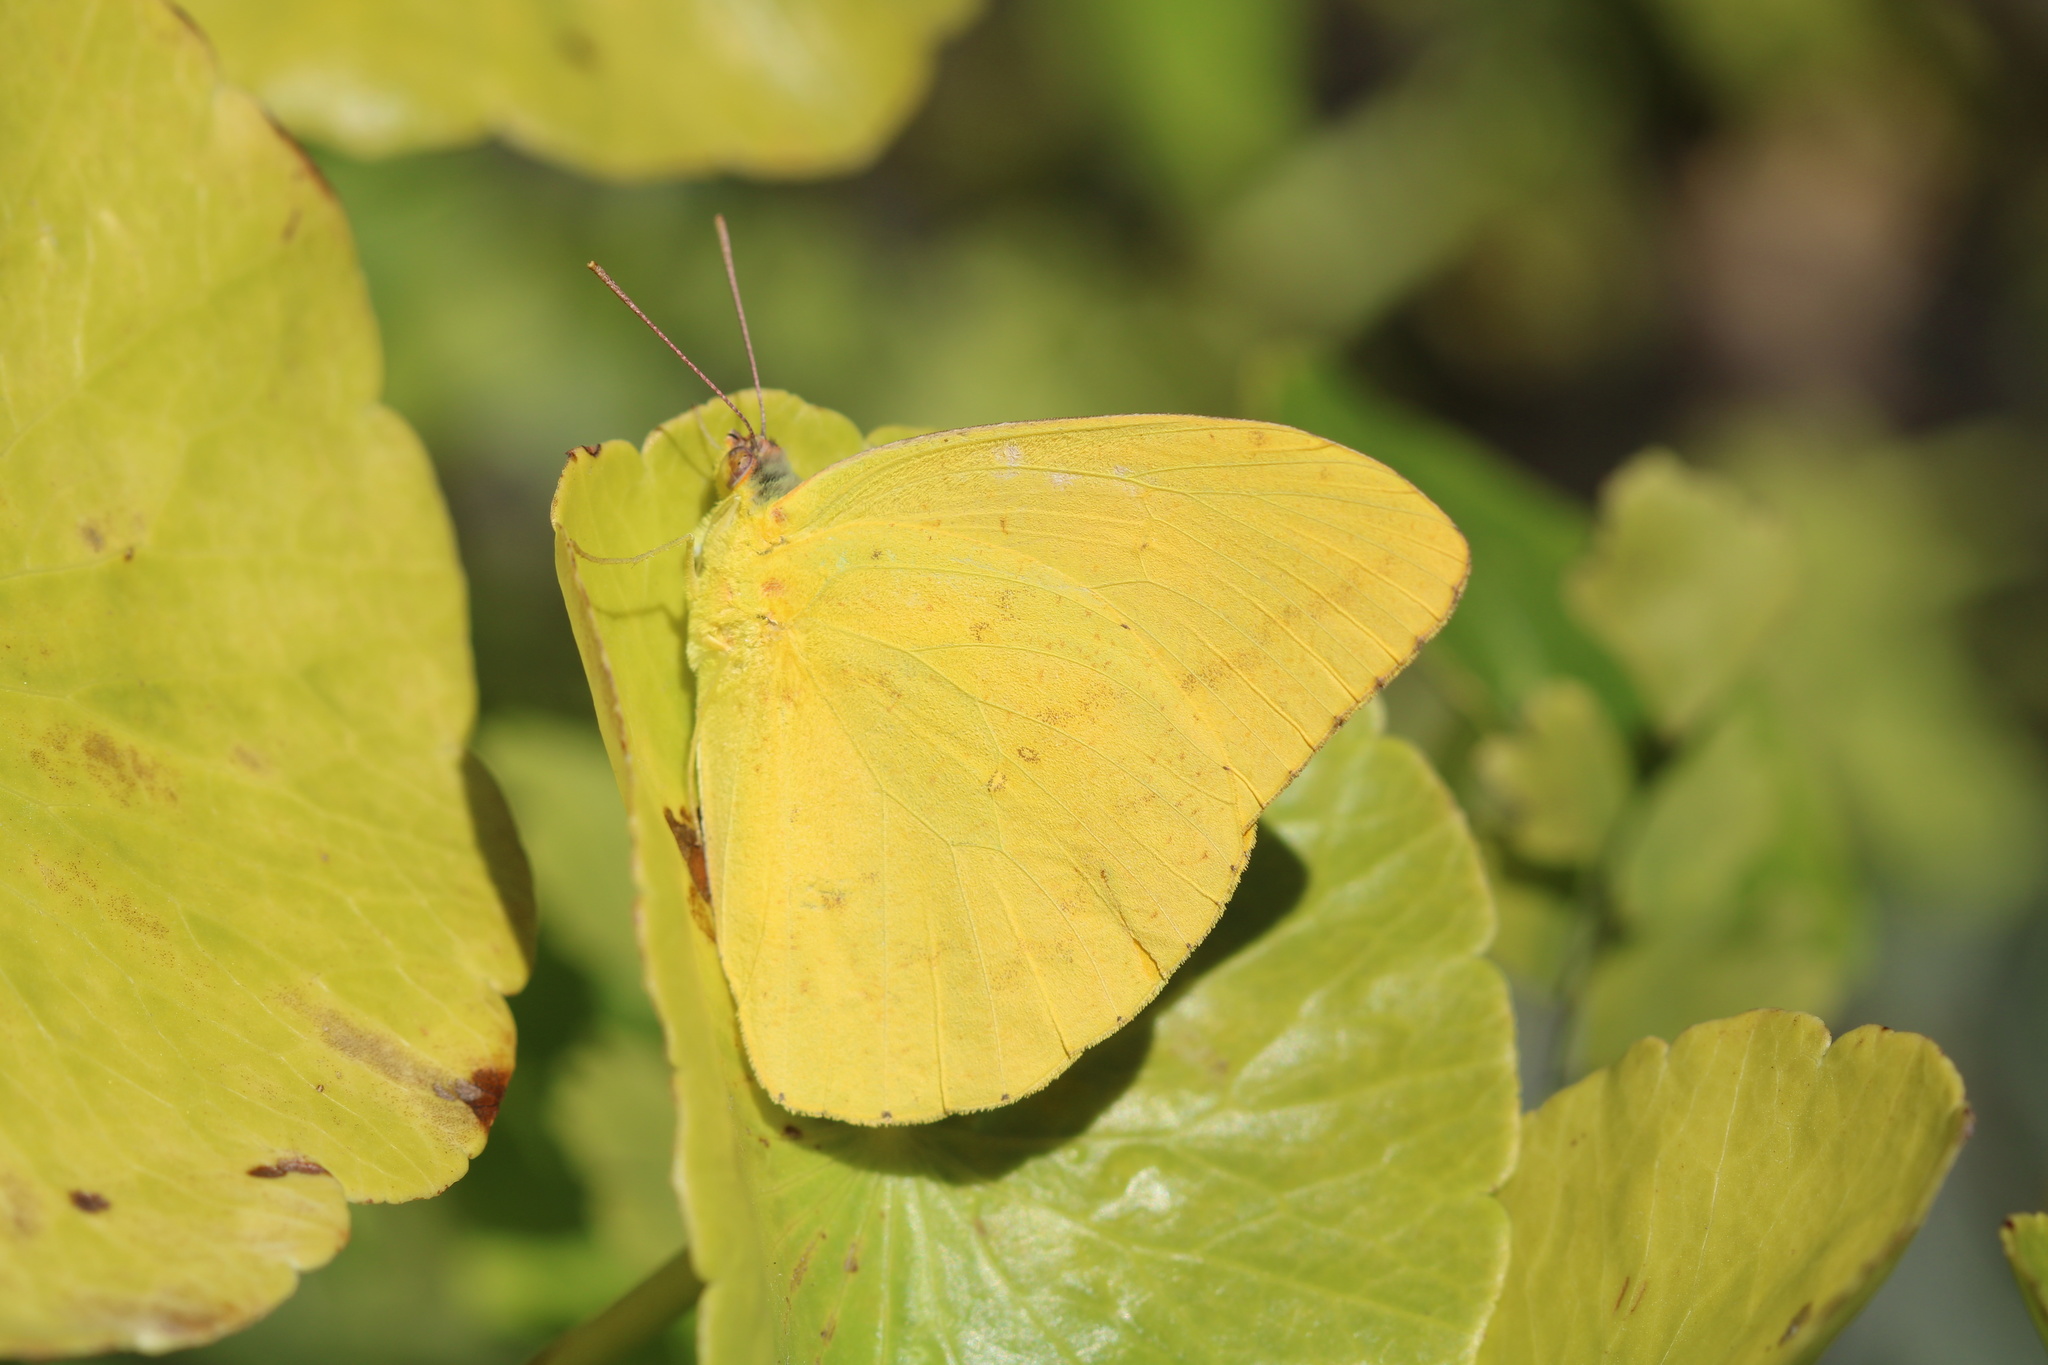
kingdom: Animalia
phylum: Arthropoda
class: Insecta
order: Lepidoptera
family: Pieridae
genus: Phoebis
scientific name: Phoebis sennae
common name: Cloudless sulphur
